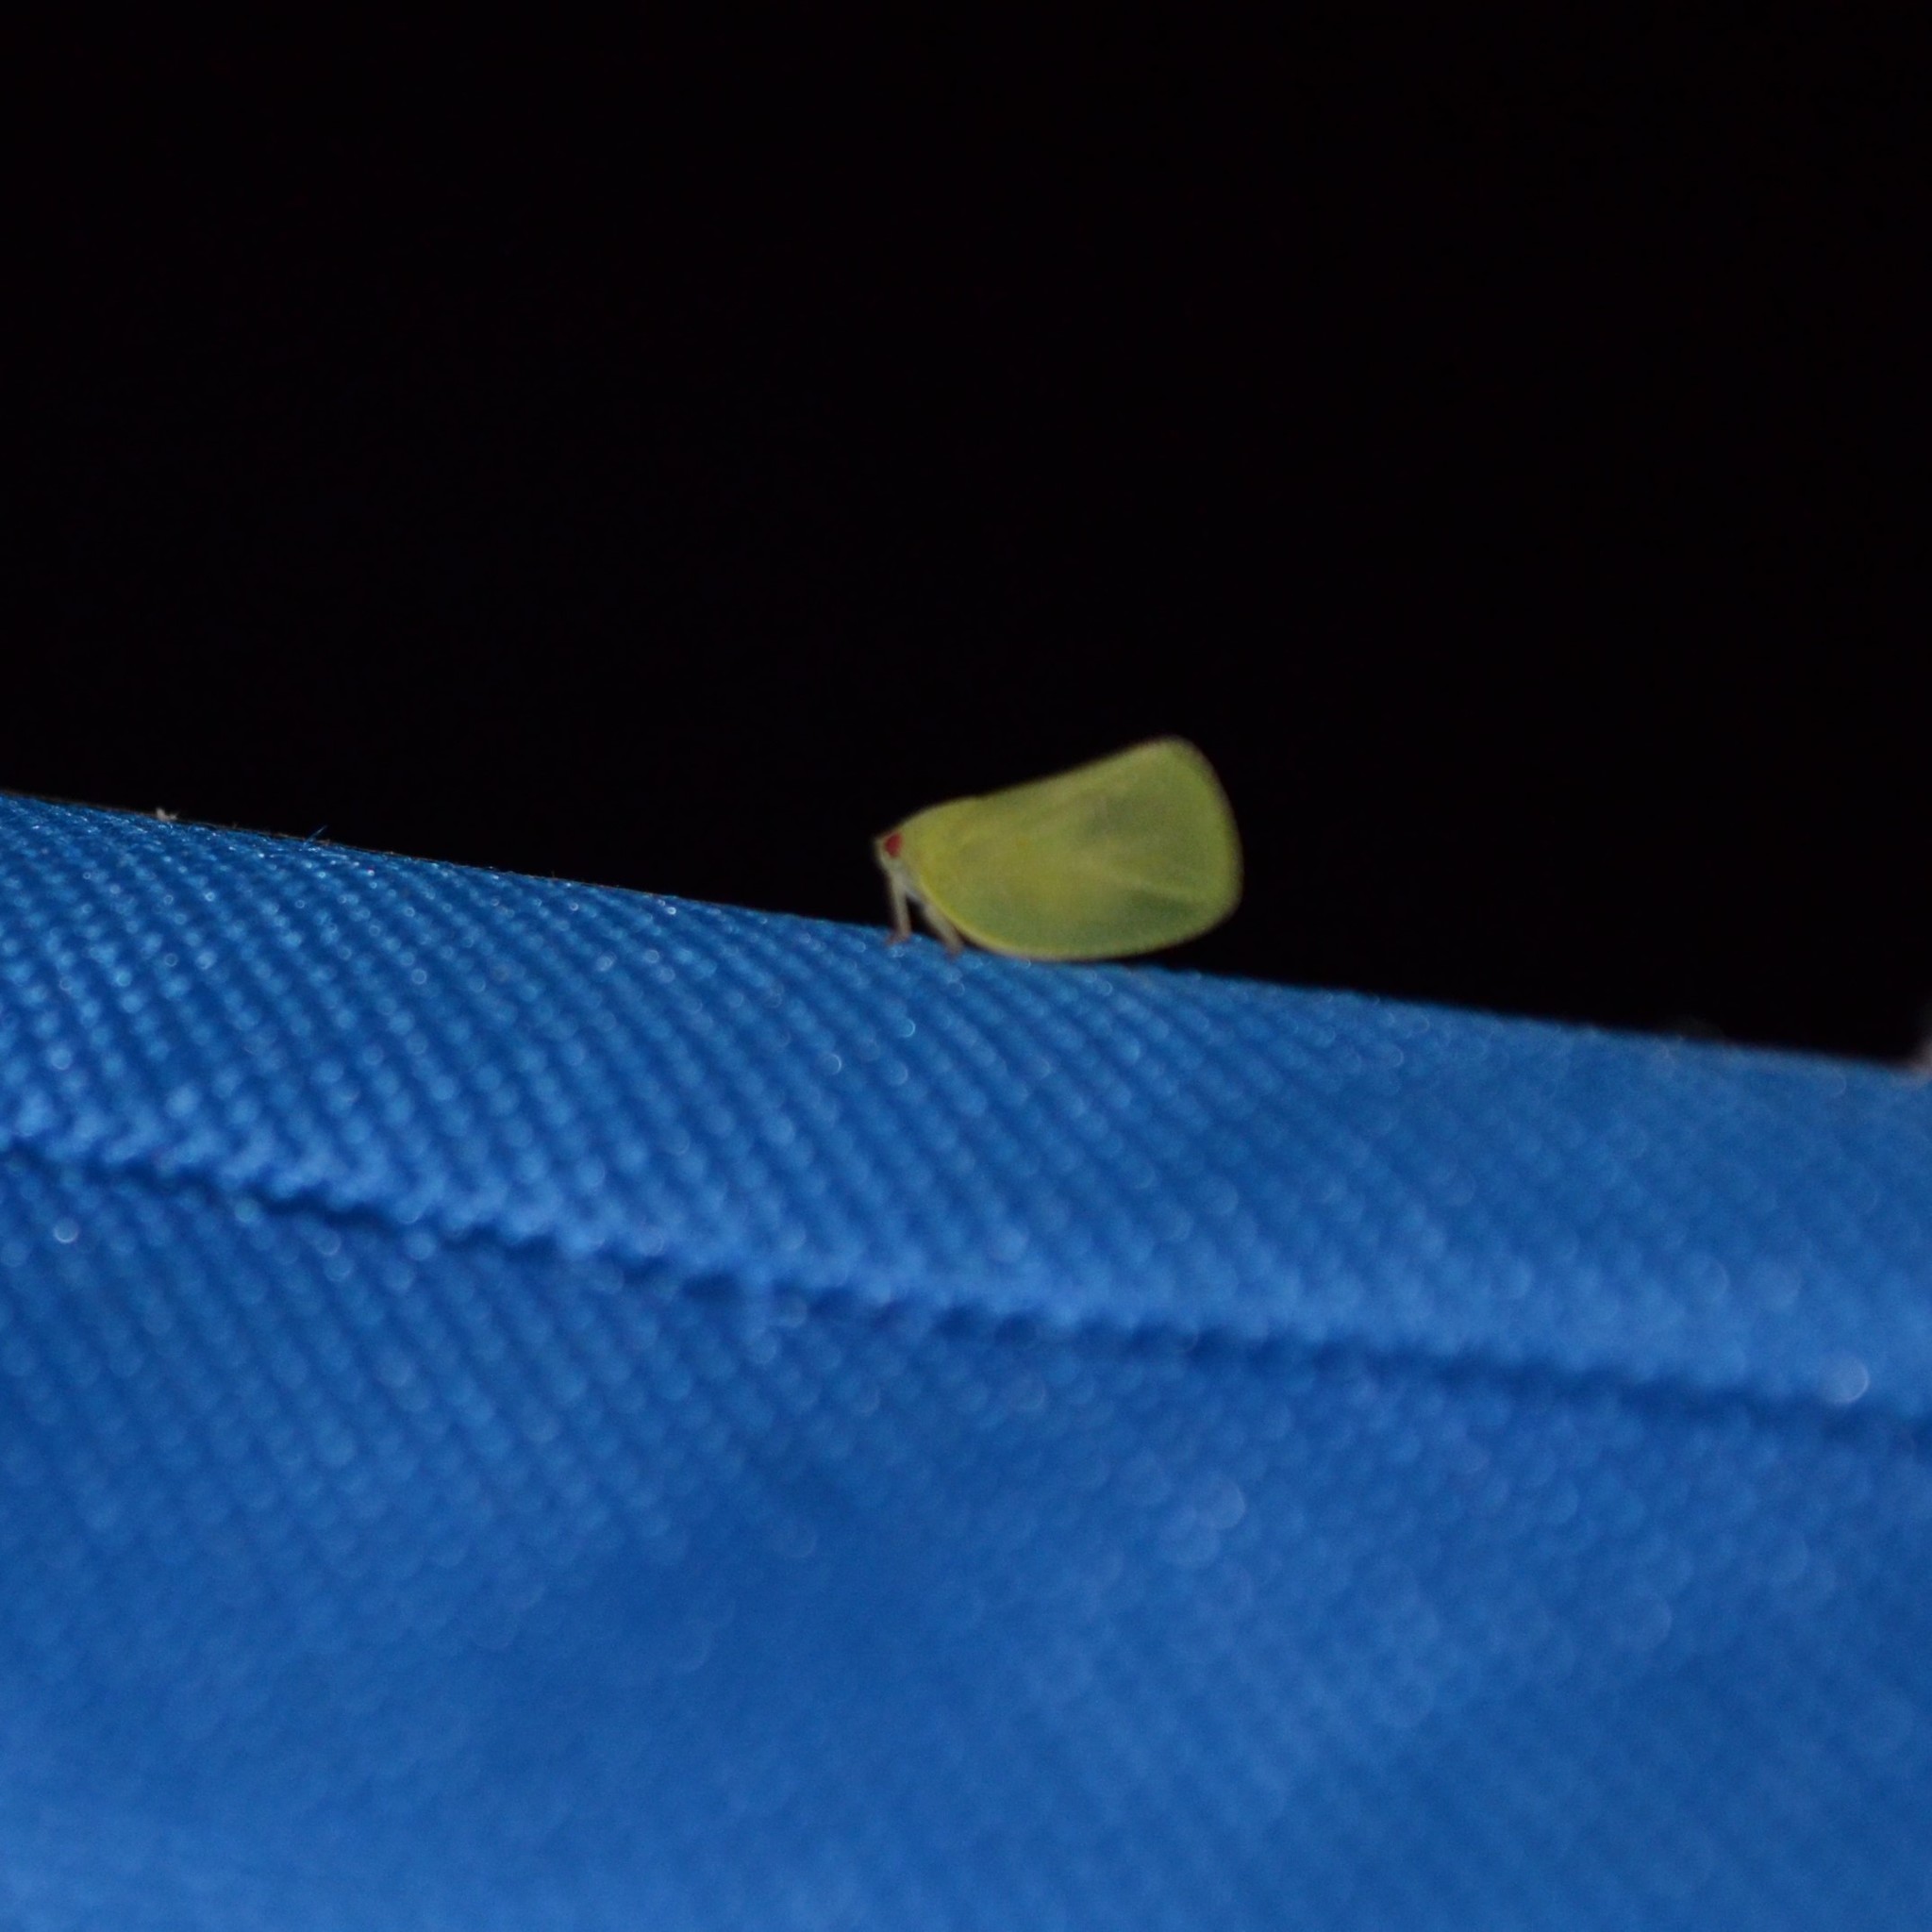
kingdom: Animalia
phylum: Arthropoda
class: Insecta
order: Hemiptera
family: Acanaloniidae
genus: Acanalonia
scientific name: Acanalonia conica
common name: Green cone-headed planthopper
